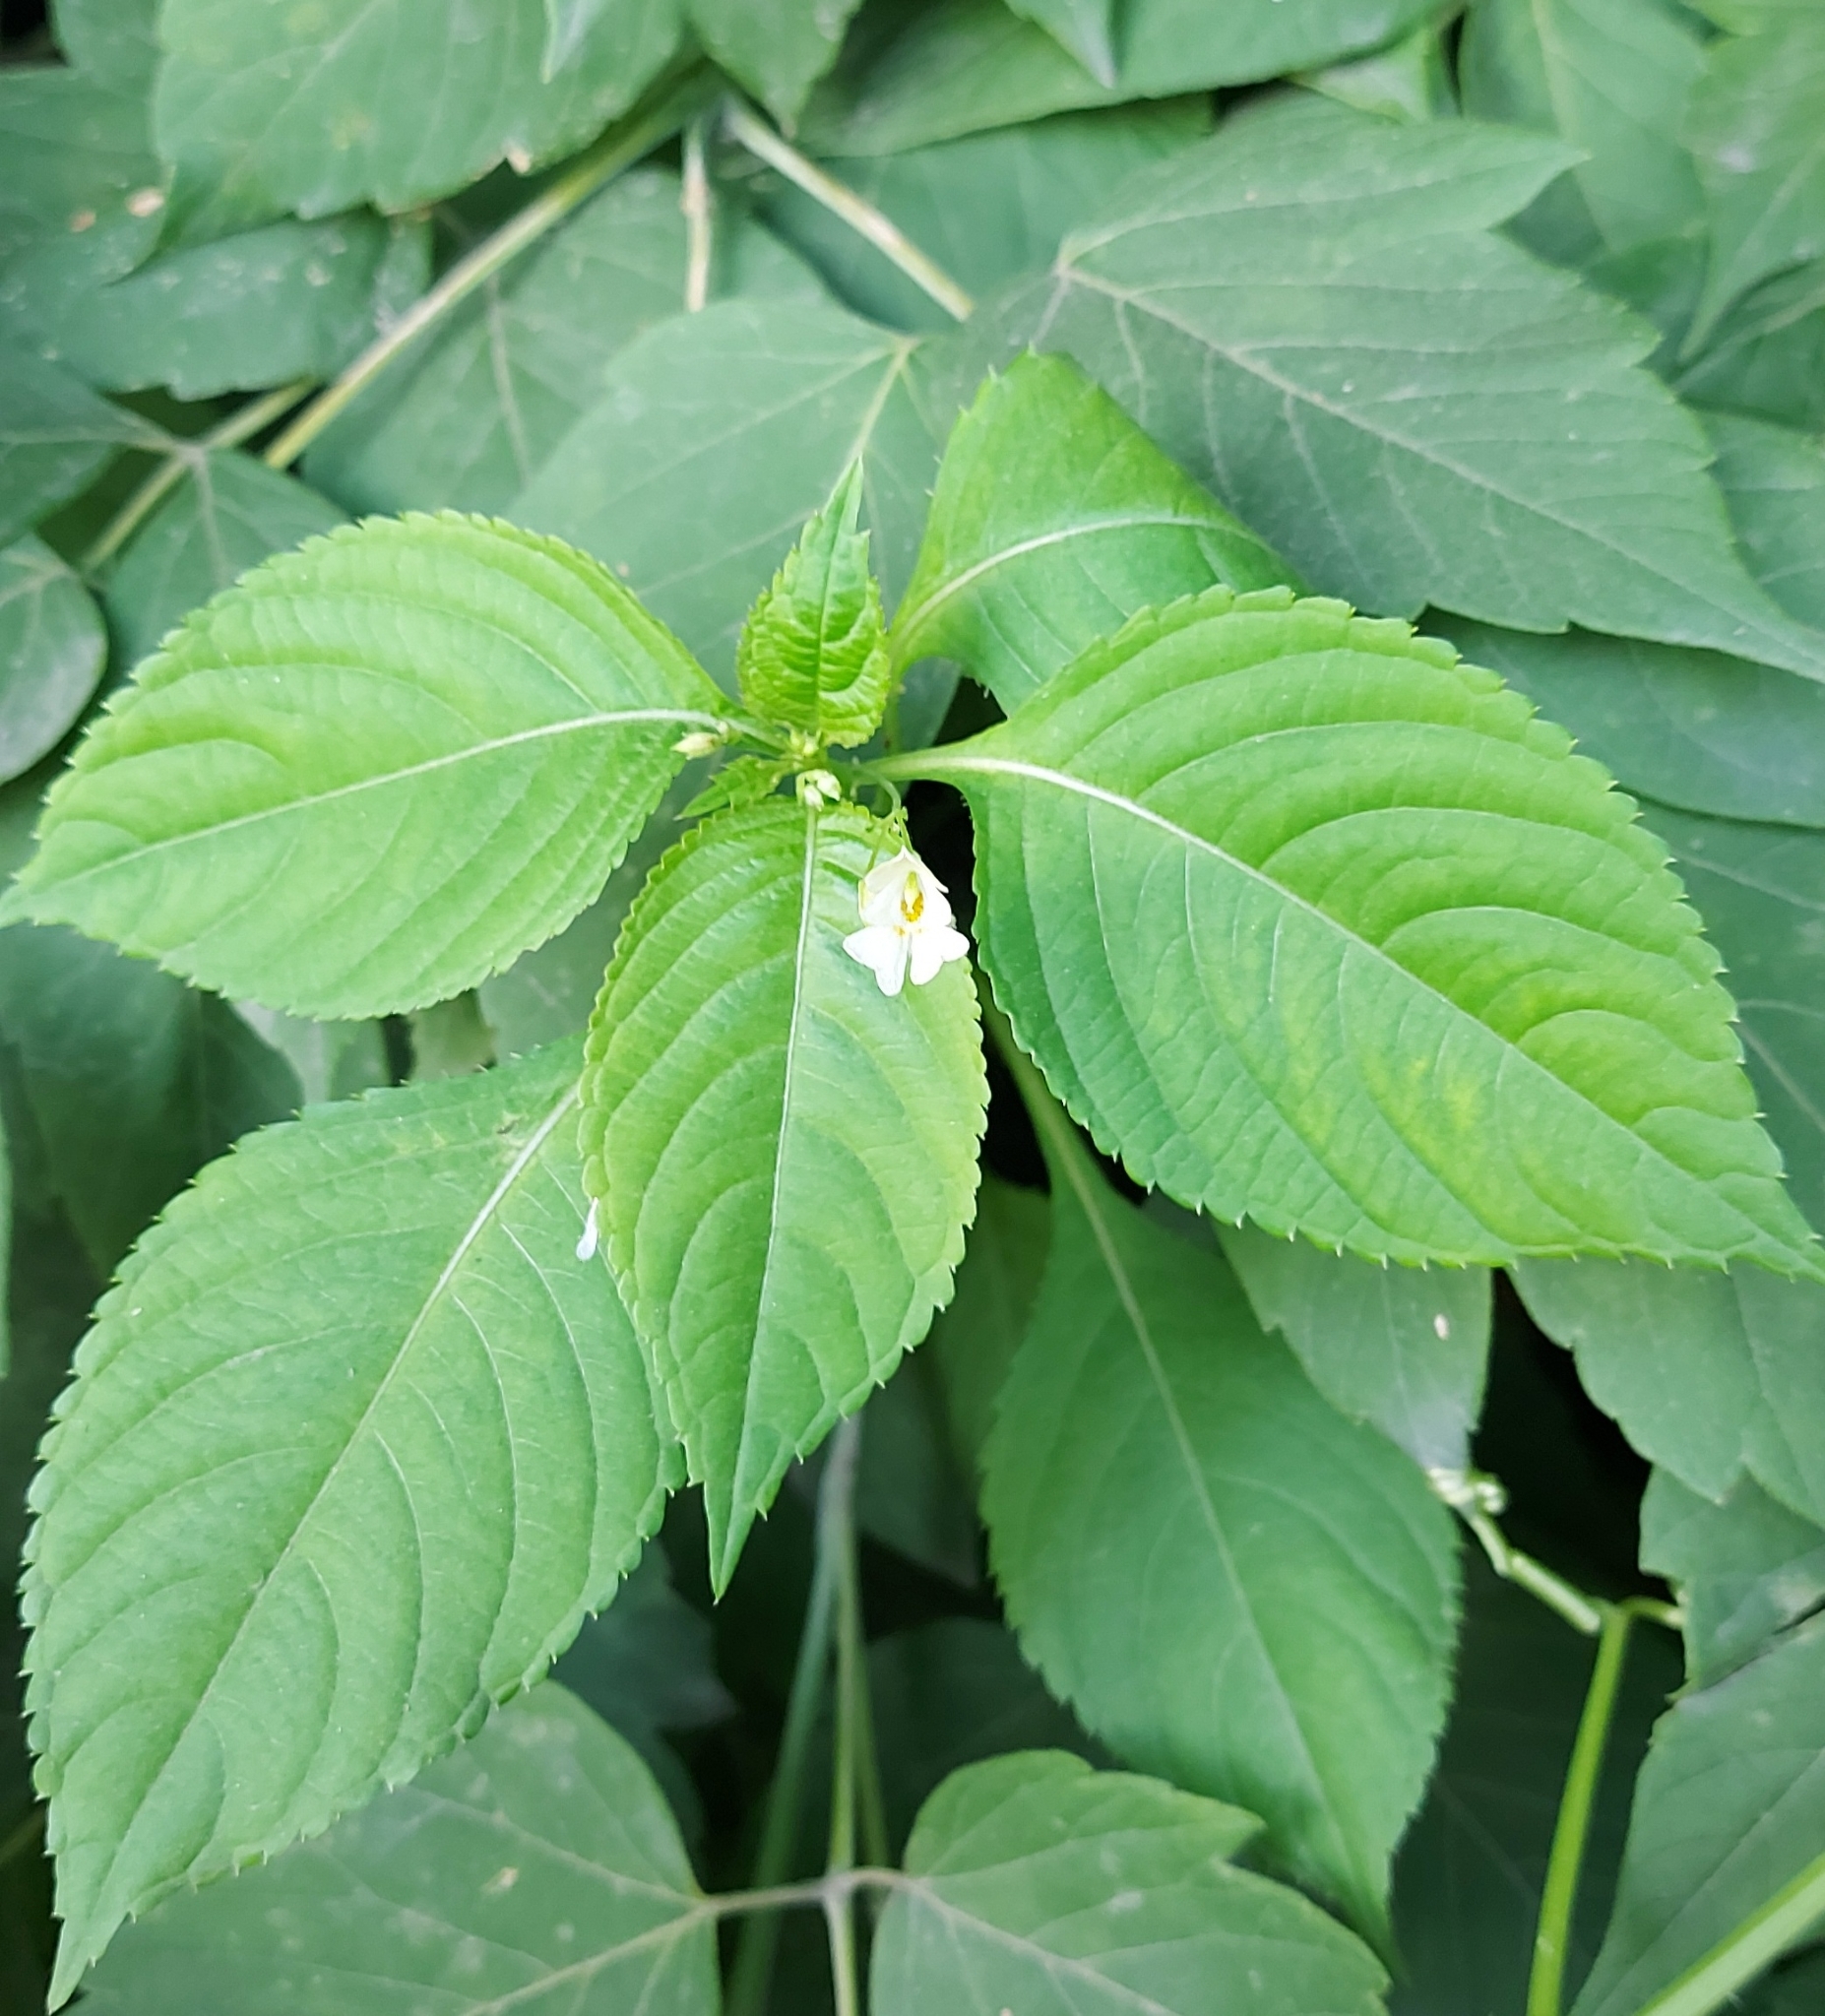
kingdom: Plantae
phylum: Tracheophyta
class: Magnoliopsida
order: Ericales
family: Balsaminaceae
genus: Impatiens
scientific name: Impatiens parviflora
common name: Small balsam
